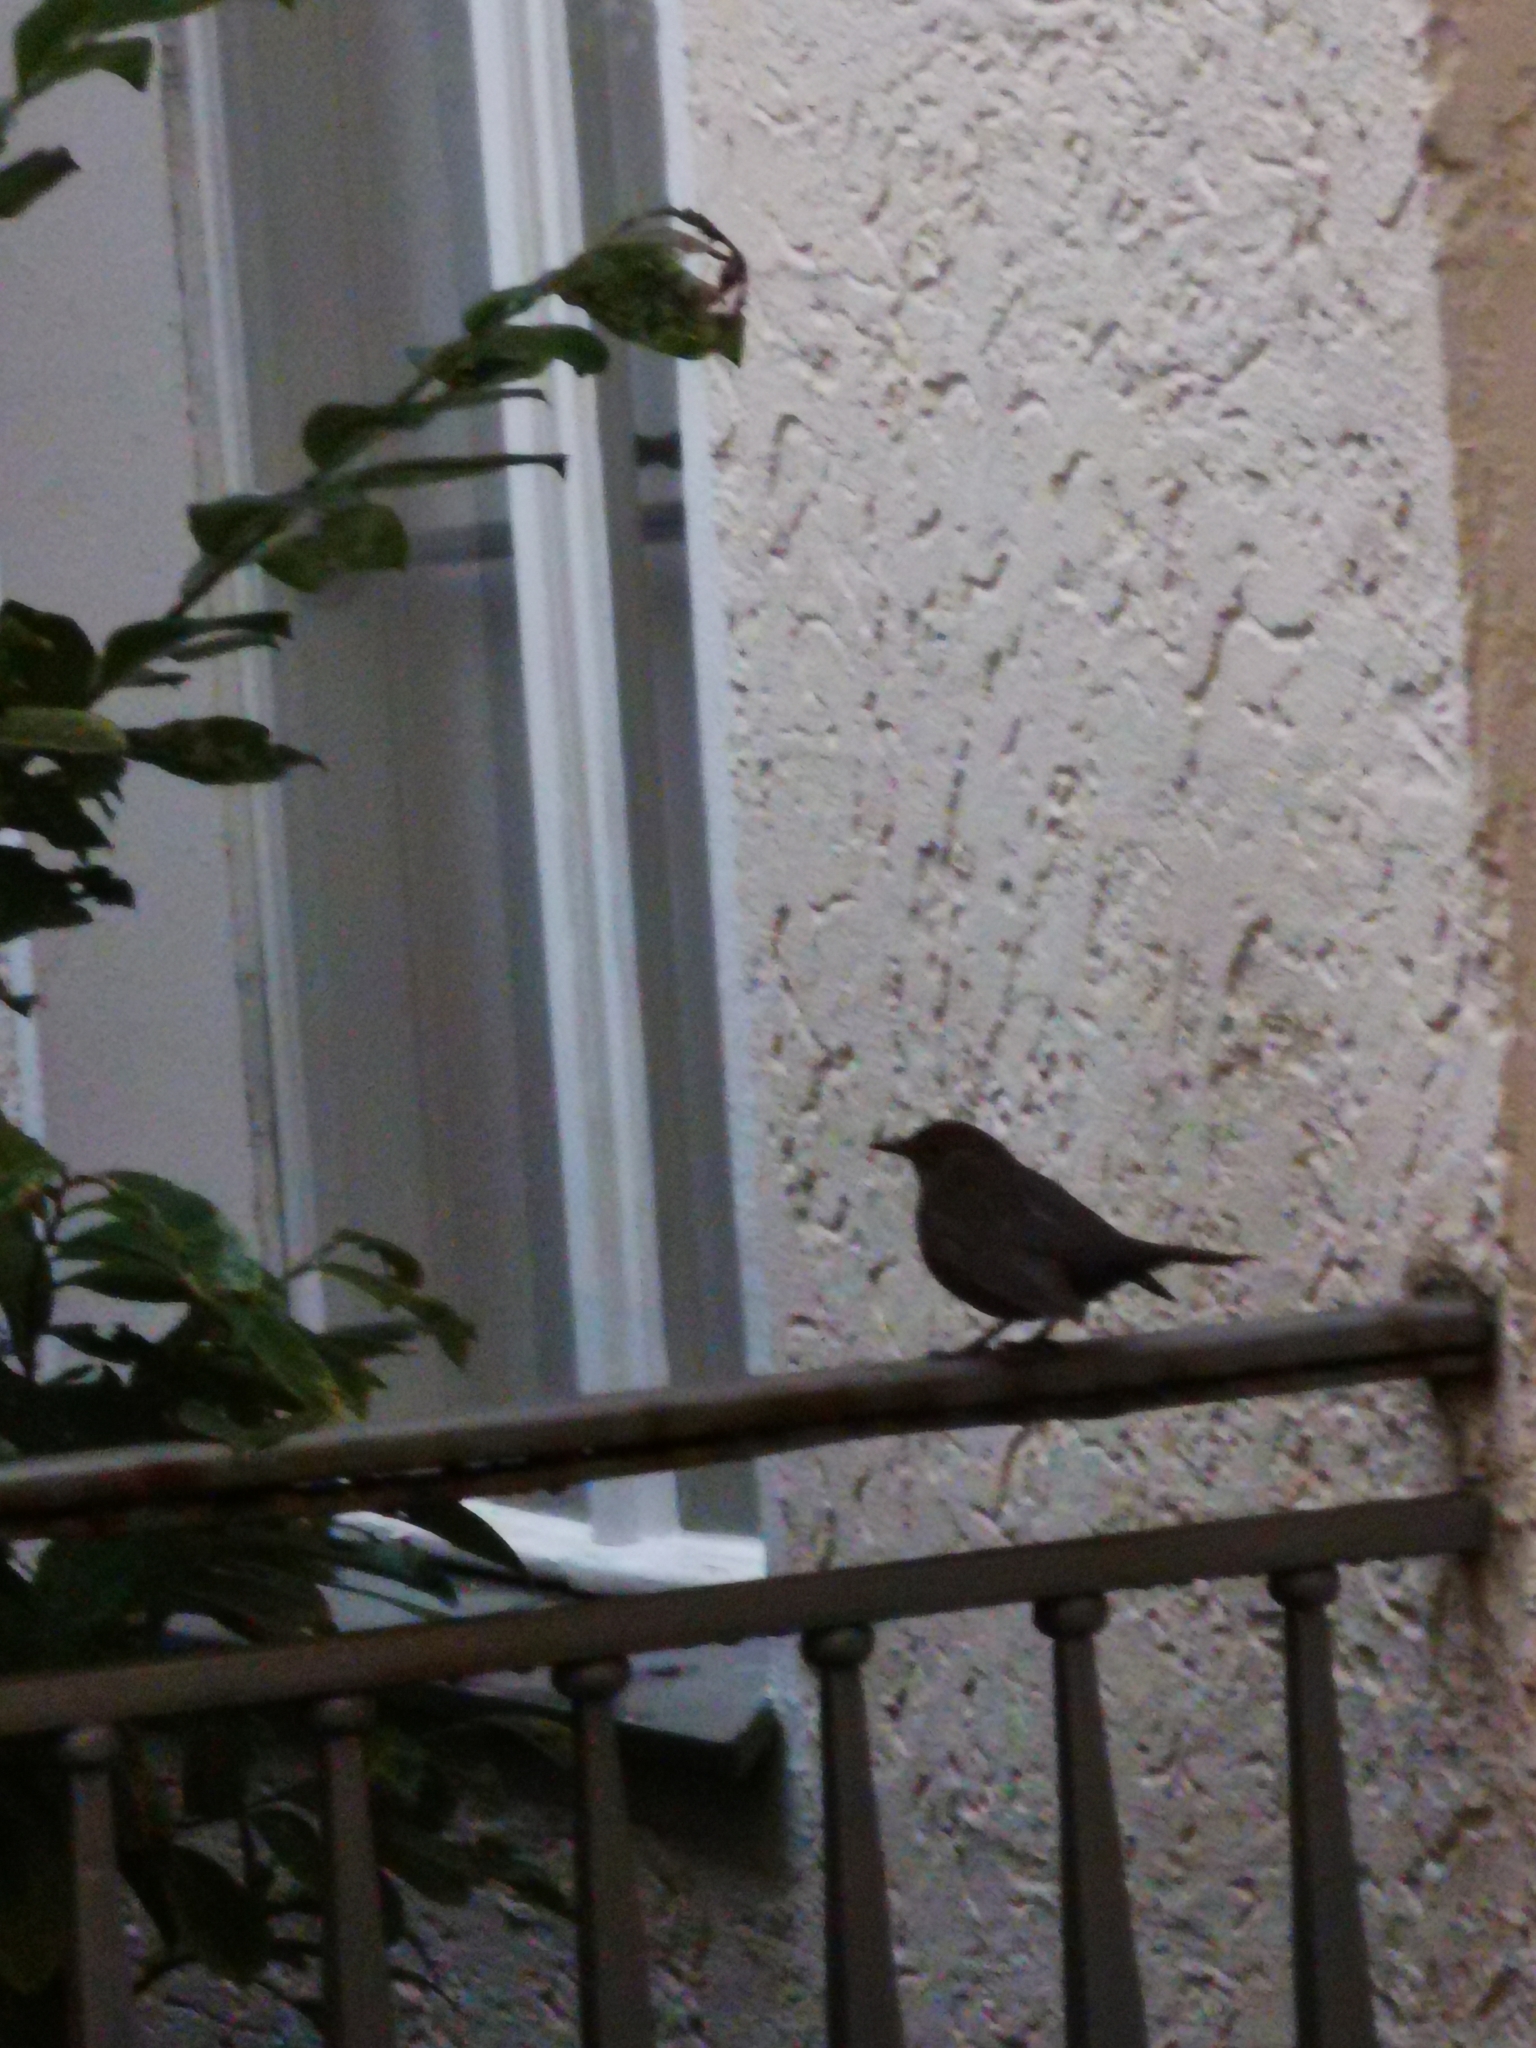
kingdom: Animalia
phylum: Chordata
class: Aves
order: Passeriformes
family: Turdidae
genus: Turdus
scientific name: Turdus merula
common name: Common blackbird
